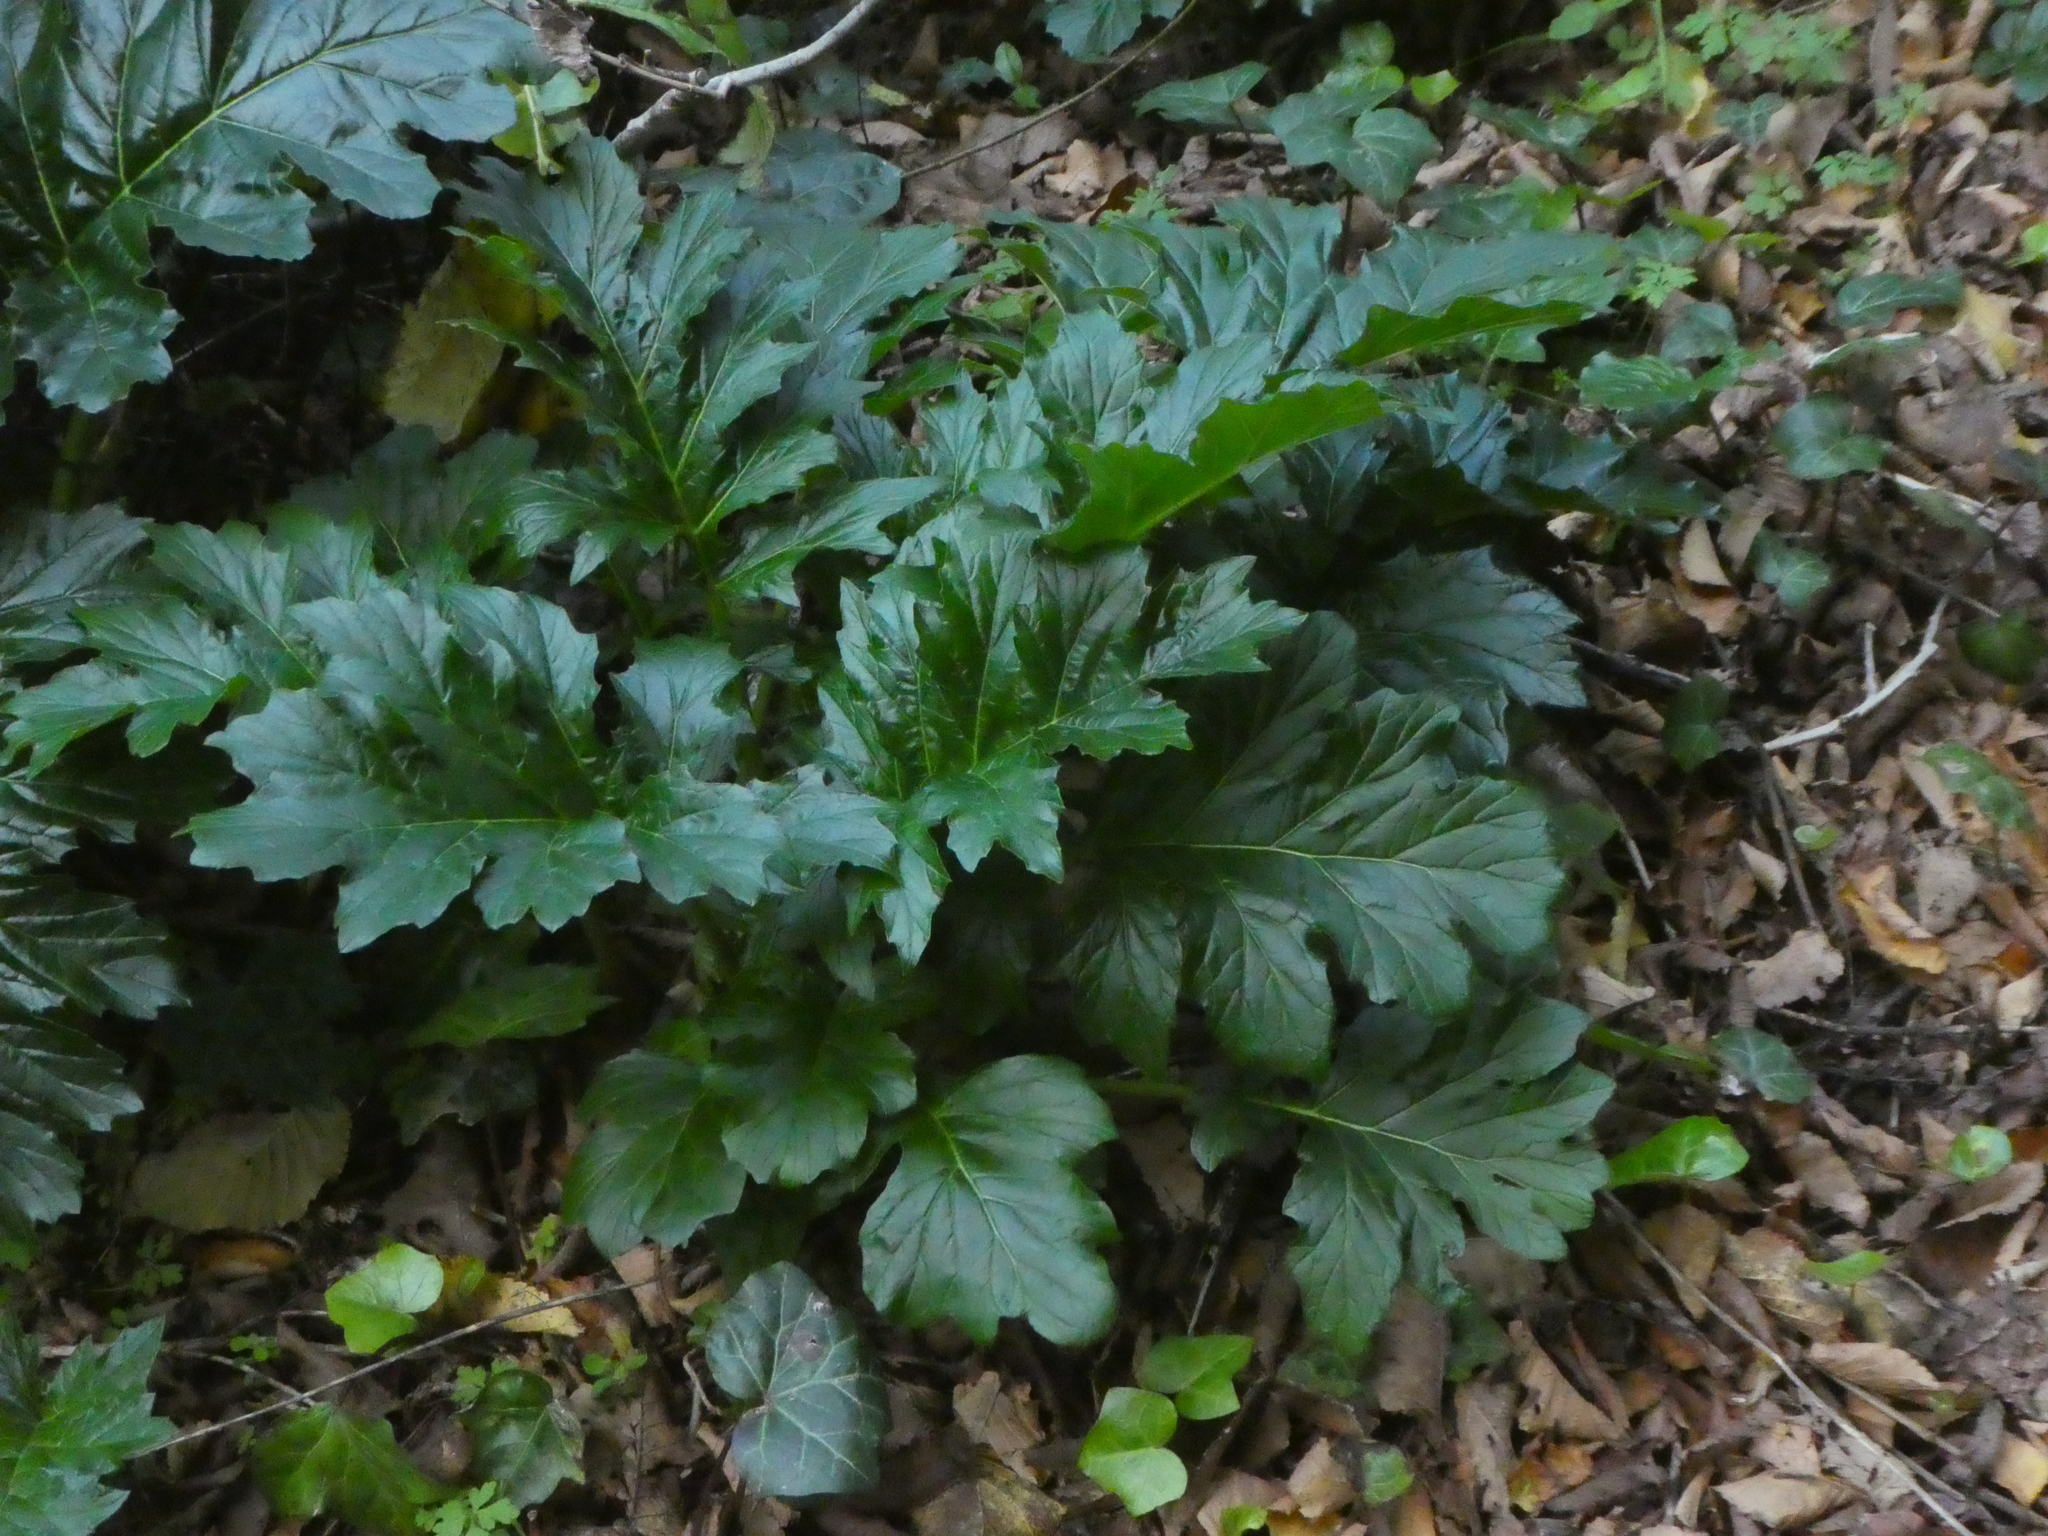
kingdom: Plantae
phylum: Tracheophyta
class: Magnoliopsida
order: Lamiales
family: Acanthaceae
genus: Acanthus
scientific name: Acanthus mollis
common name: Bear's-breech
